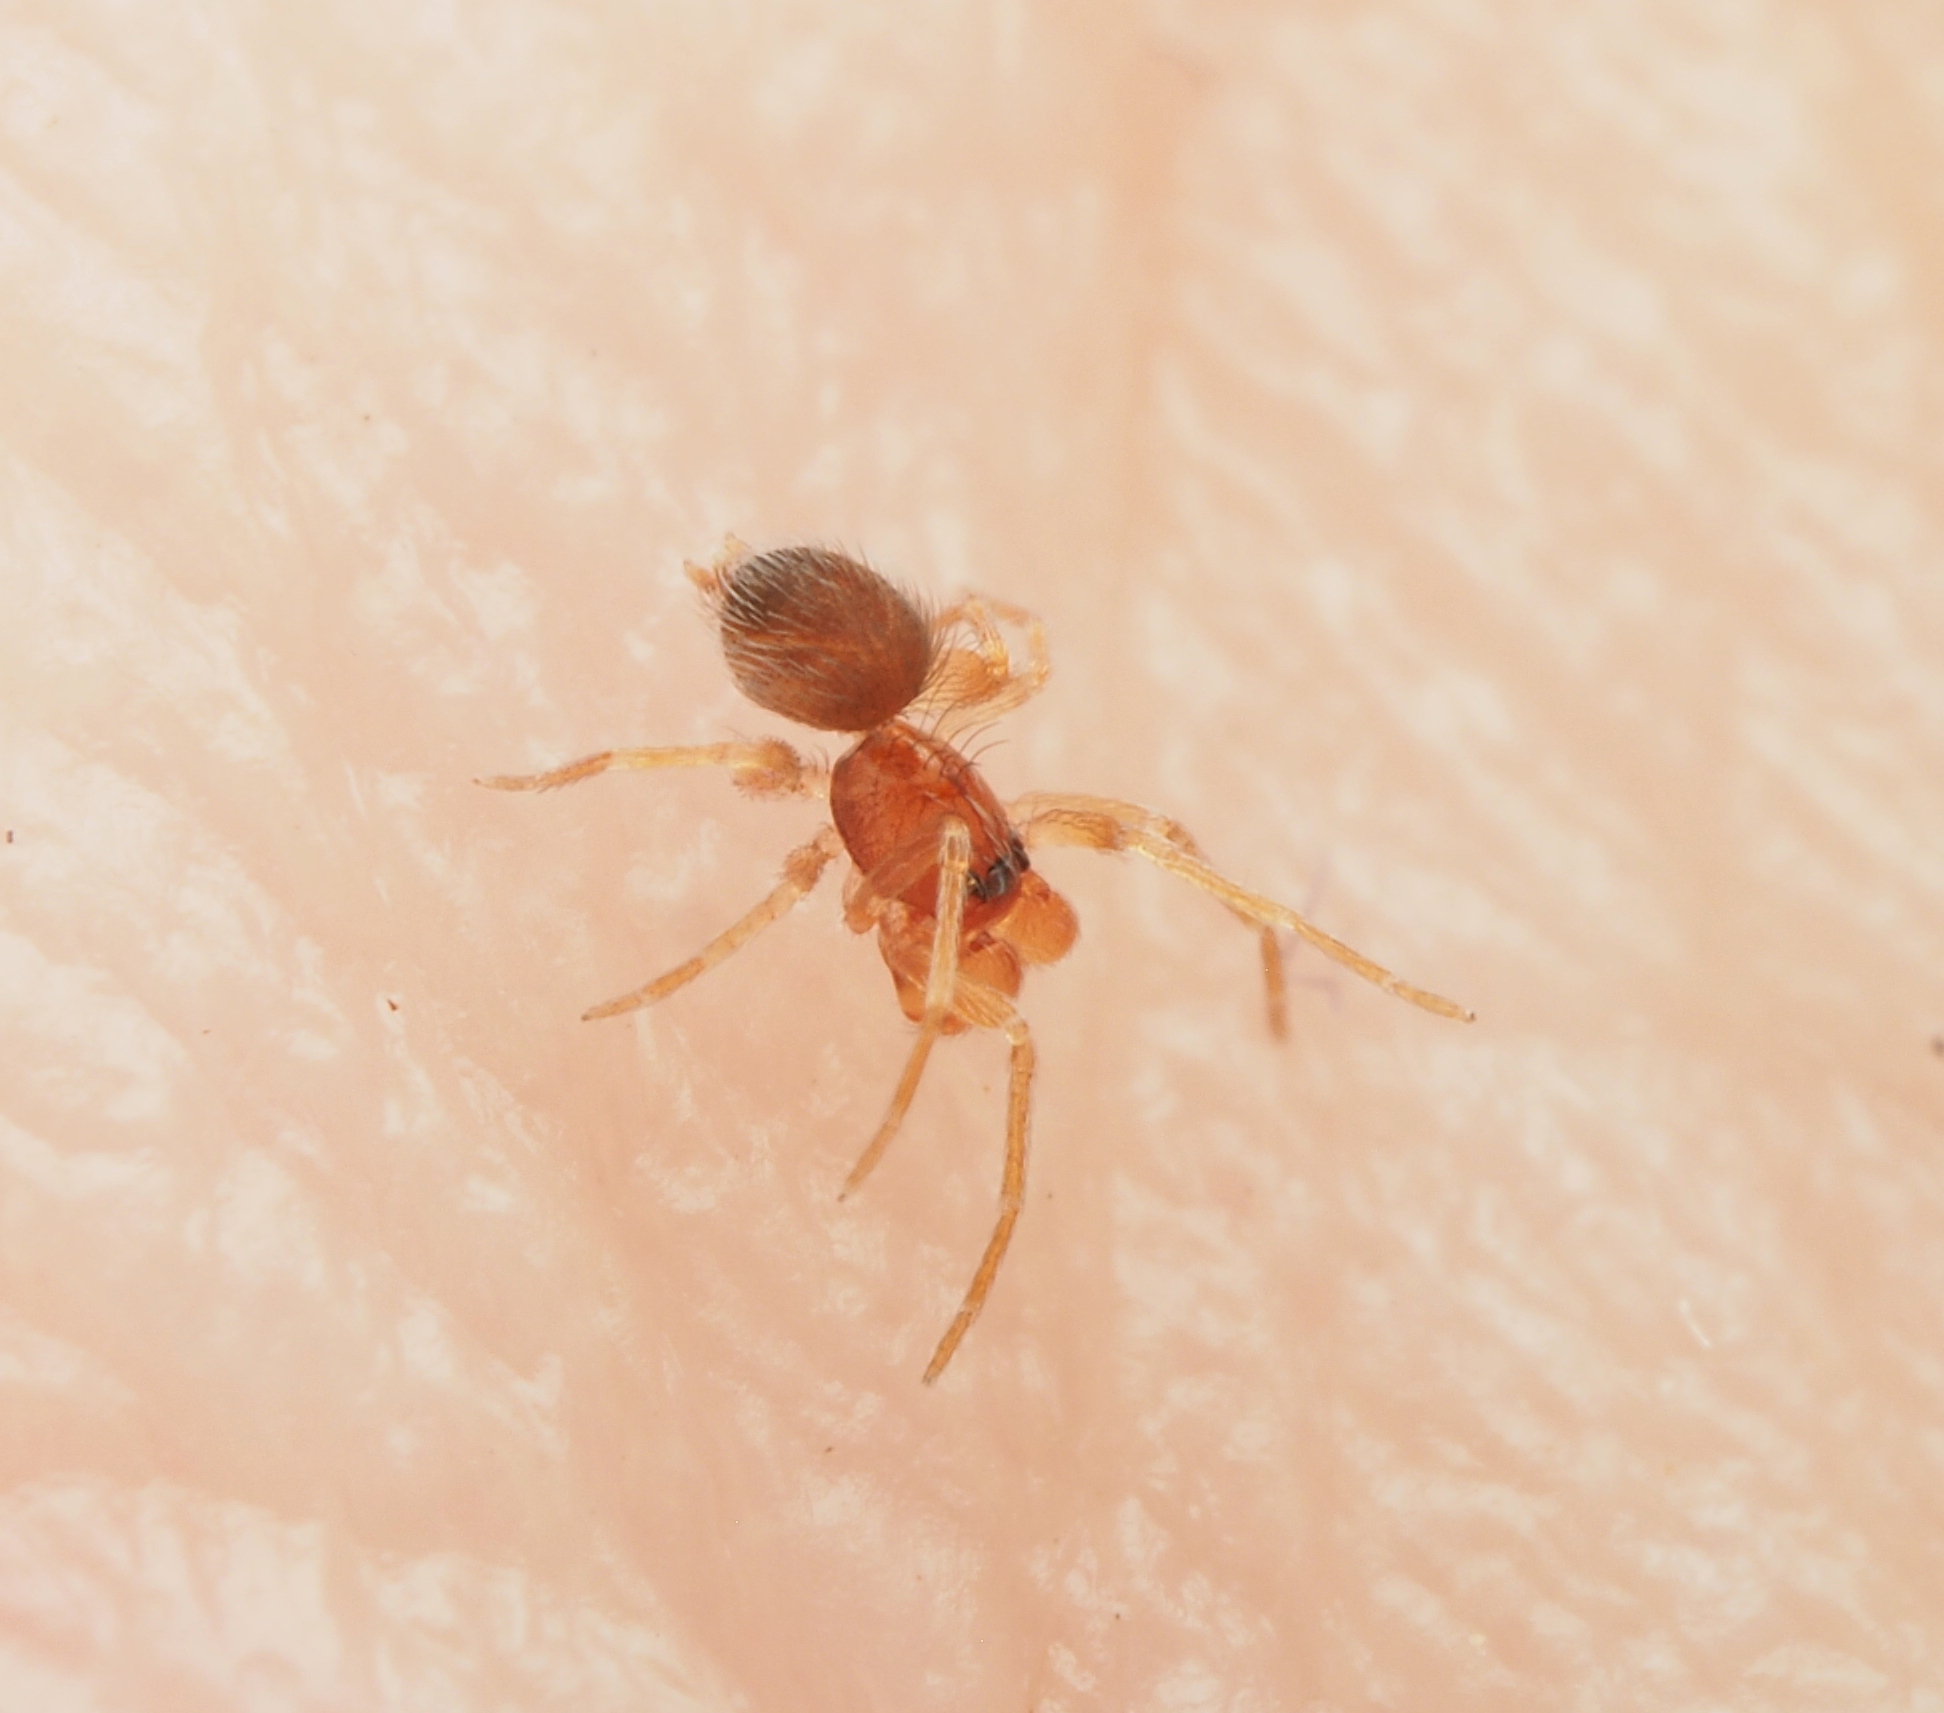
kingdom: Animalia
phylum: Arthropoda
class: Arachnida
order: Araneae
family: Oonopidae
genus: Orchestina
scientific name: Orchestina
